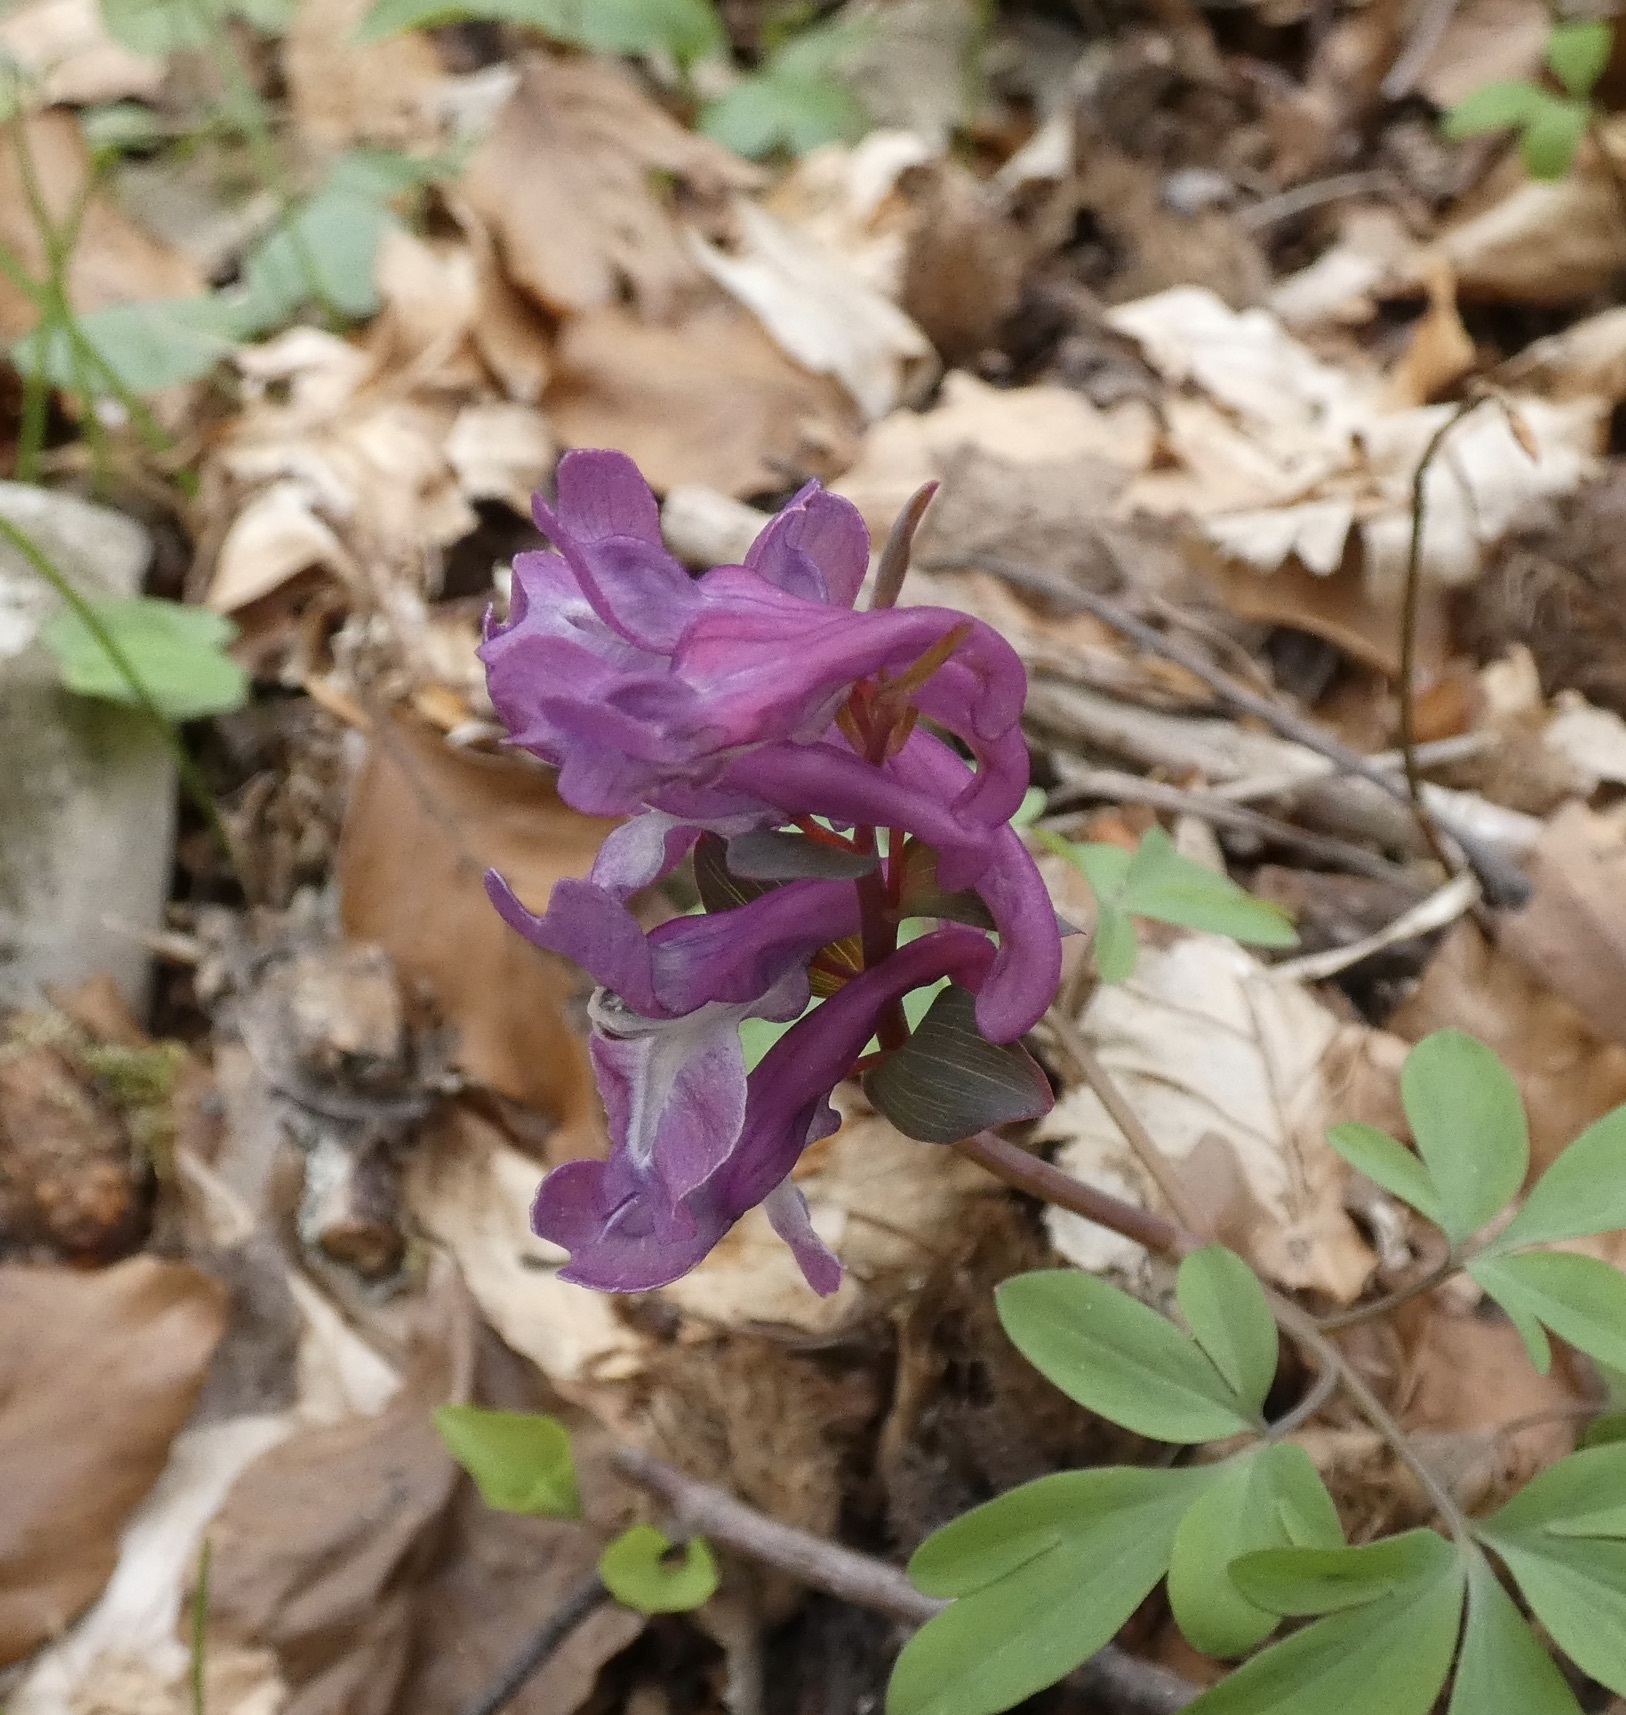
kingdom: Plantae
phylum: Tracheophyta
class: Magnoliopsida
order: Ranunculales
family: Papaveraceae
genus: Corydalis
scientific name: Corydalis cava
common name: Hollowroot
